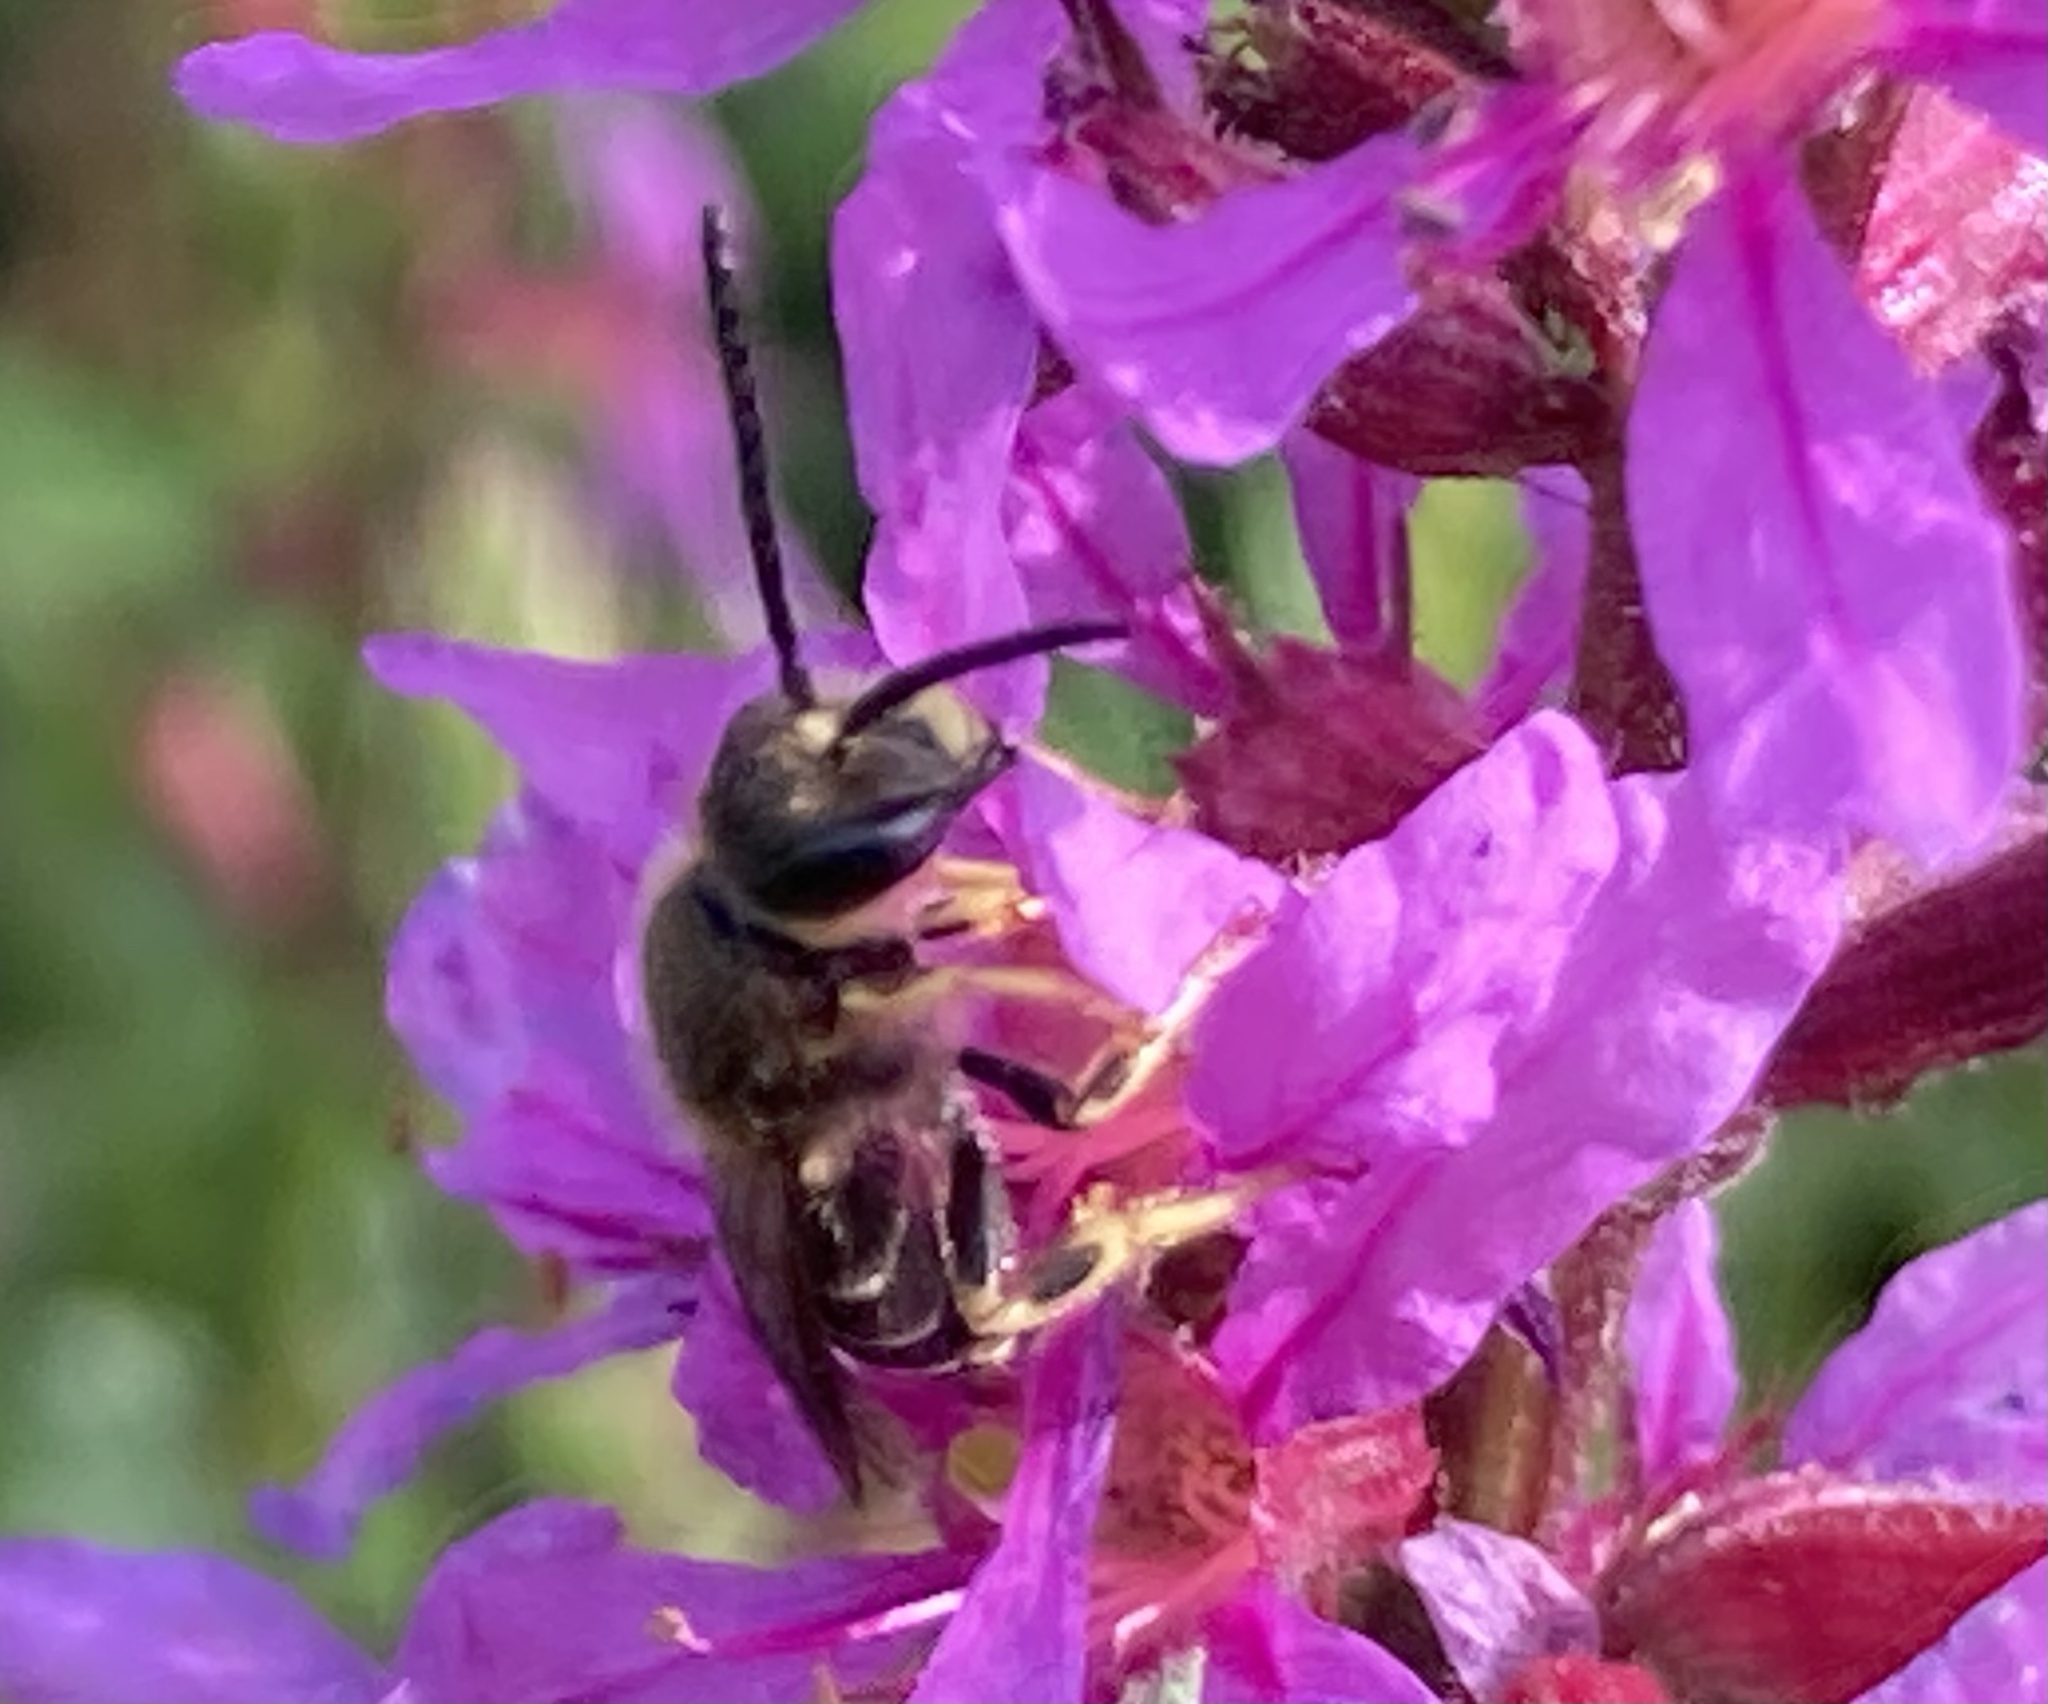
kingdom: Animalia
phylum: Arthropoda
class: Insecta
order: Hymenoptera
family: Halictidae
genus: Halictus
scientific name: Halictus rubicundus
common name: Orange-legged furrow bee
